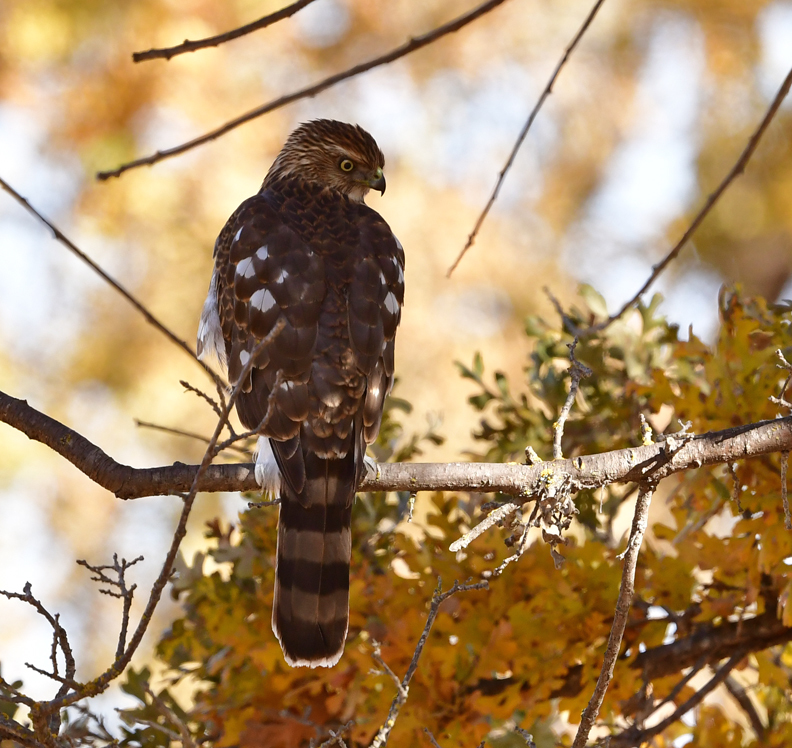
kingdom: Animalia
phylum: Chordata
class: Aves
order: Accipitriformes
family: Accipitridae
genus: Accipiter
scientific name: Accipiter cooperii
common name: Cooper's hawk
